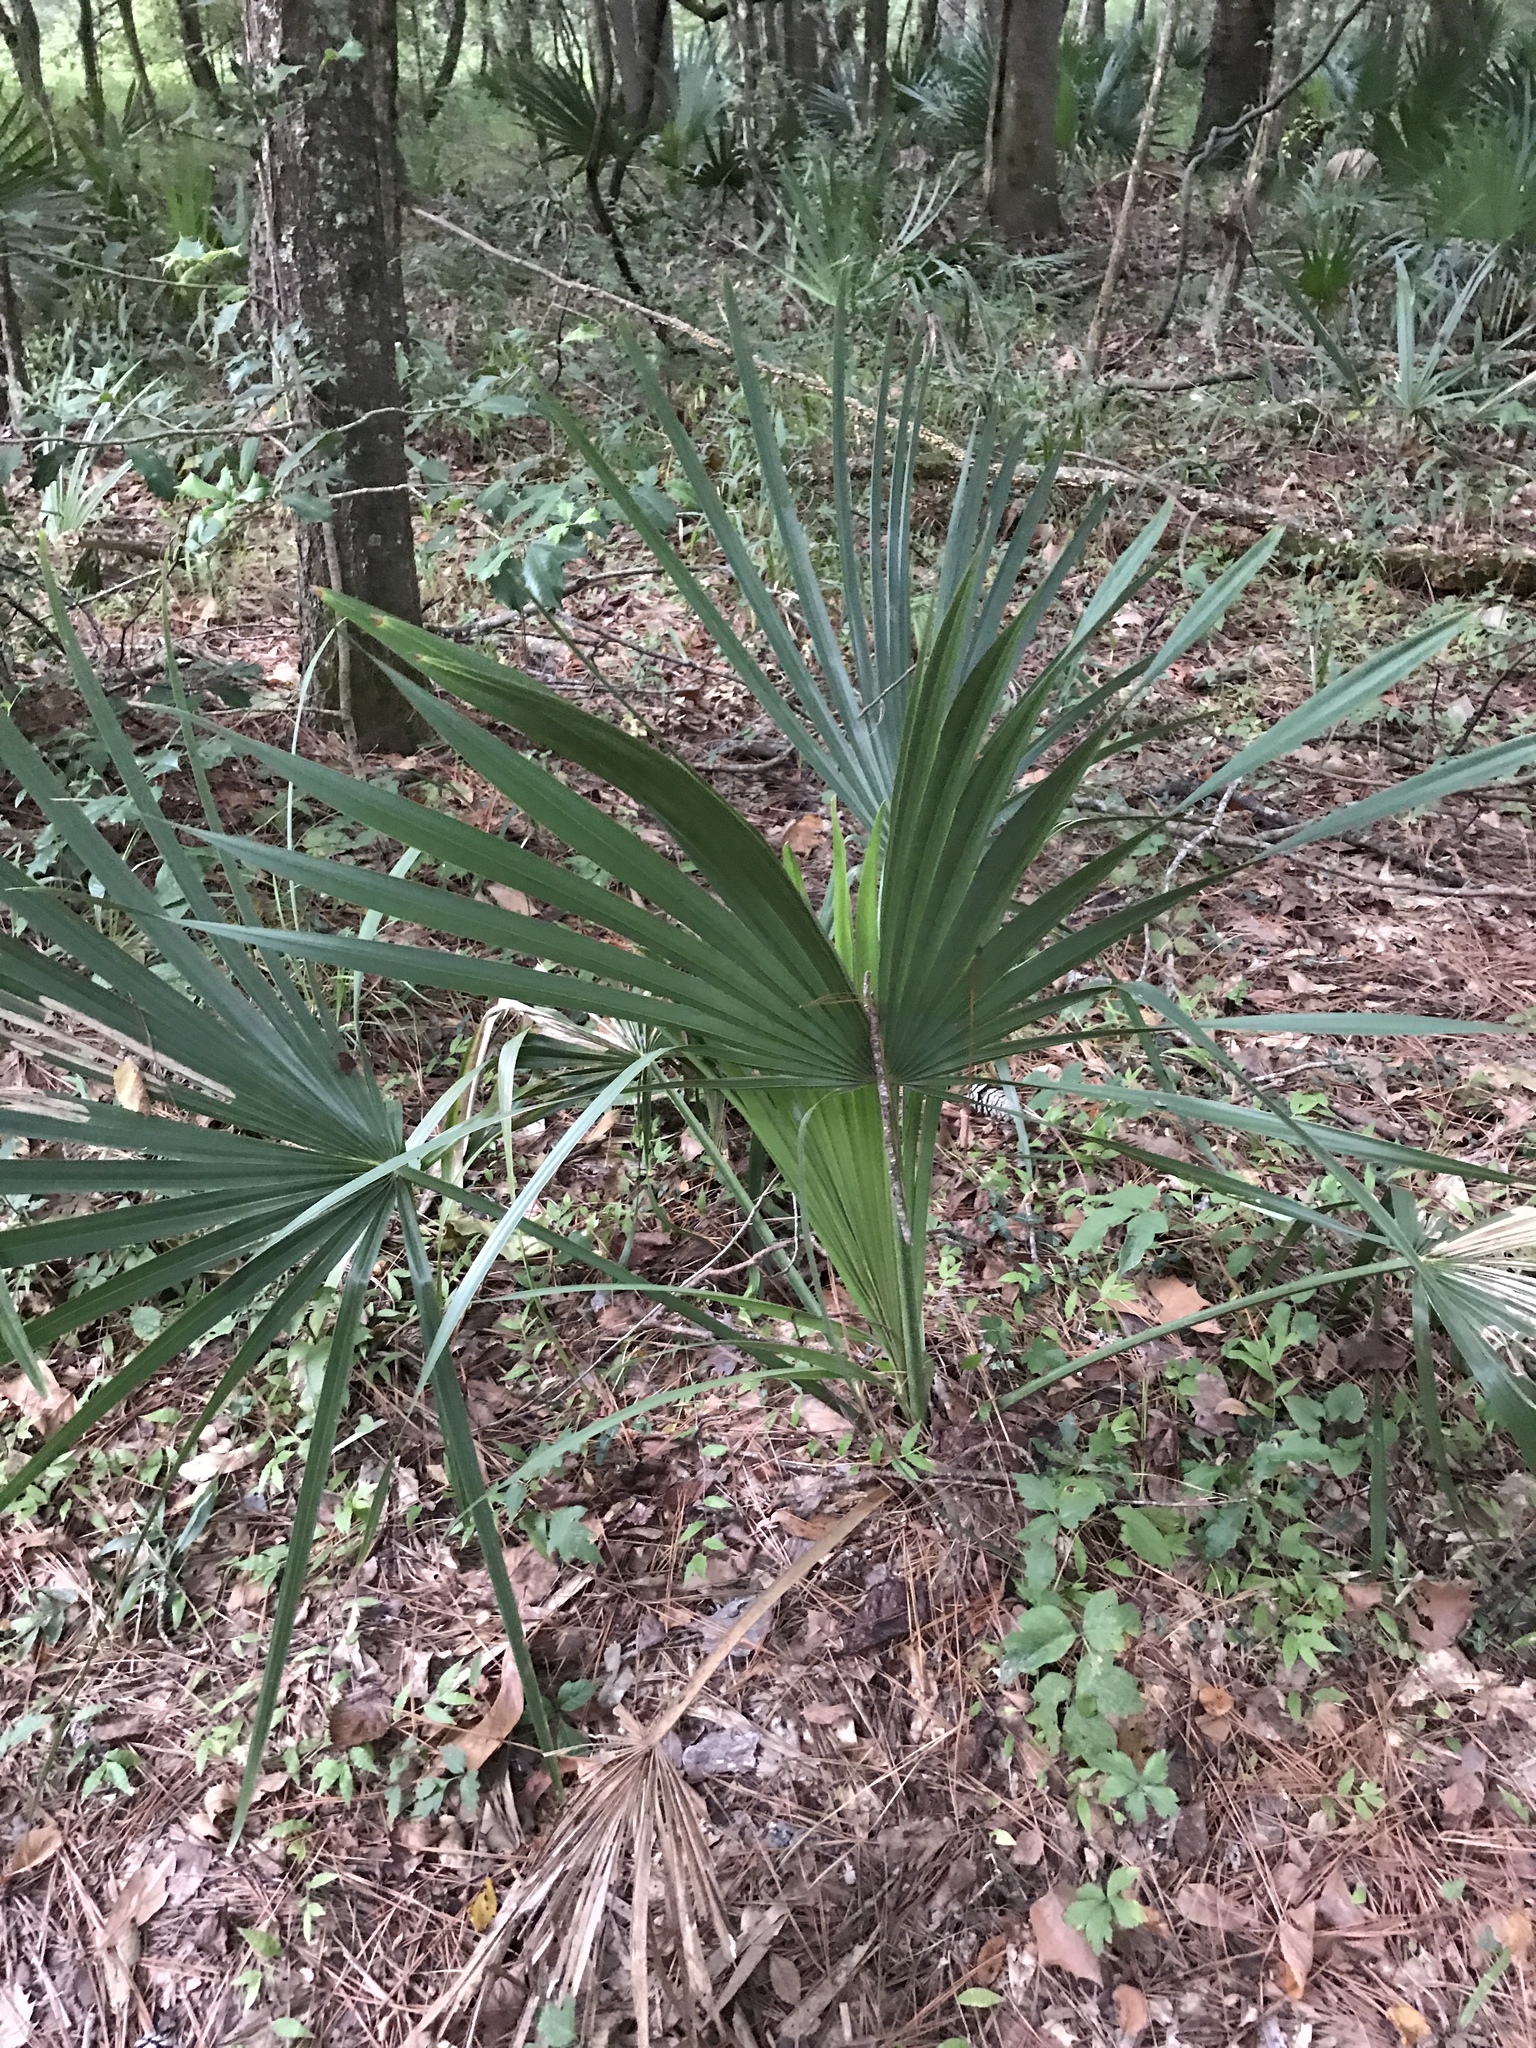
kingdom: Plantae
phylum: Tracheophyta
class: Liliopsida
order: Arecales
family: Arecaceae
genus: Sabal
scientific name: Sabal minor
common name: Dwarf palmetto
